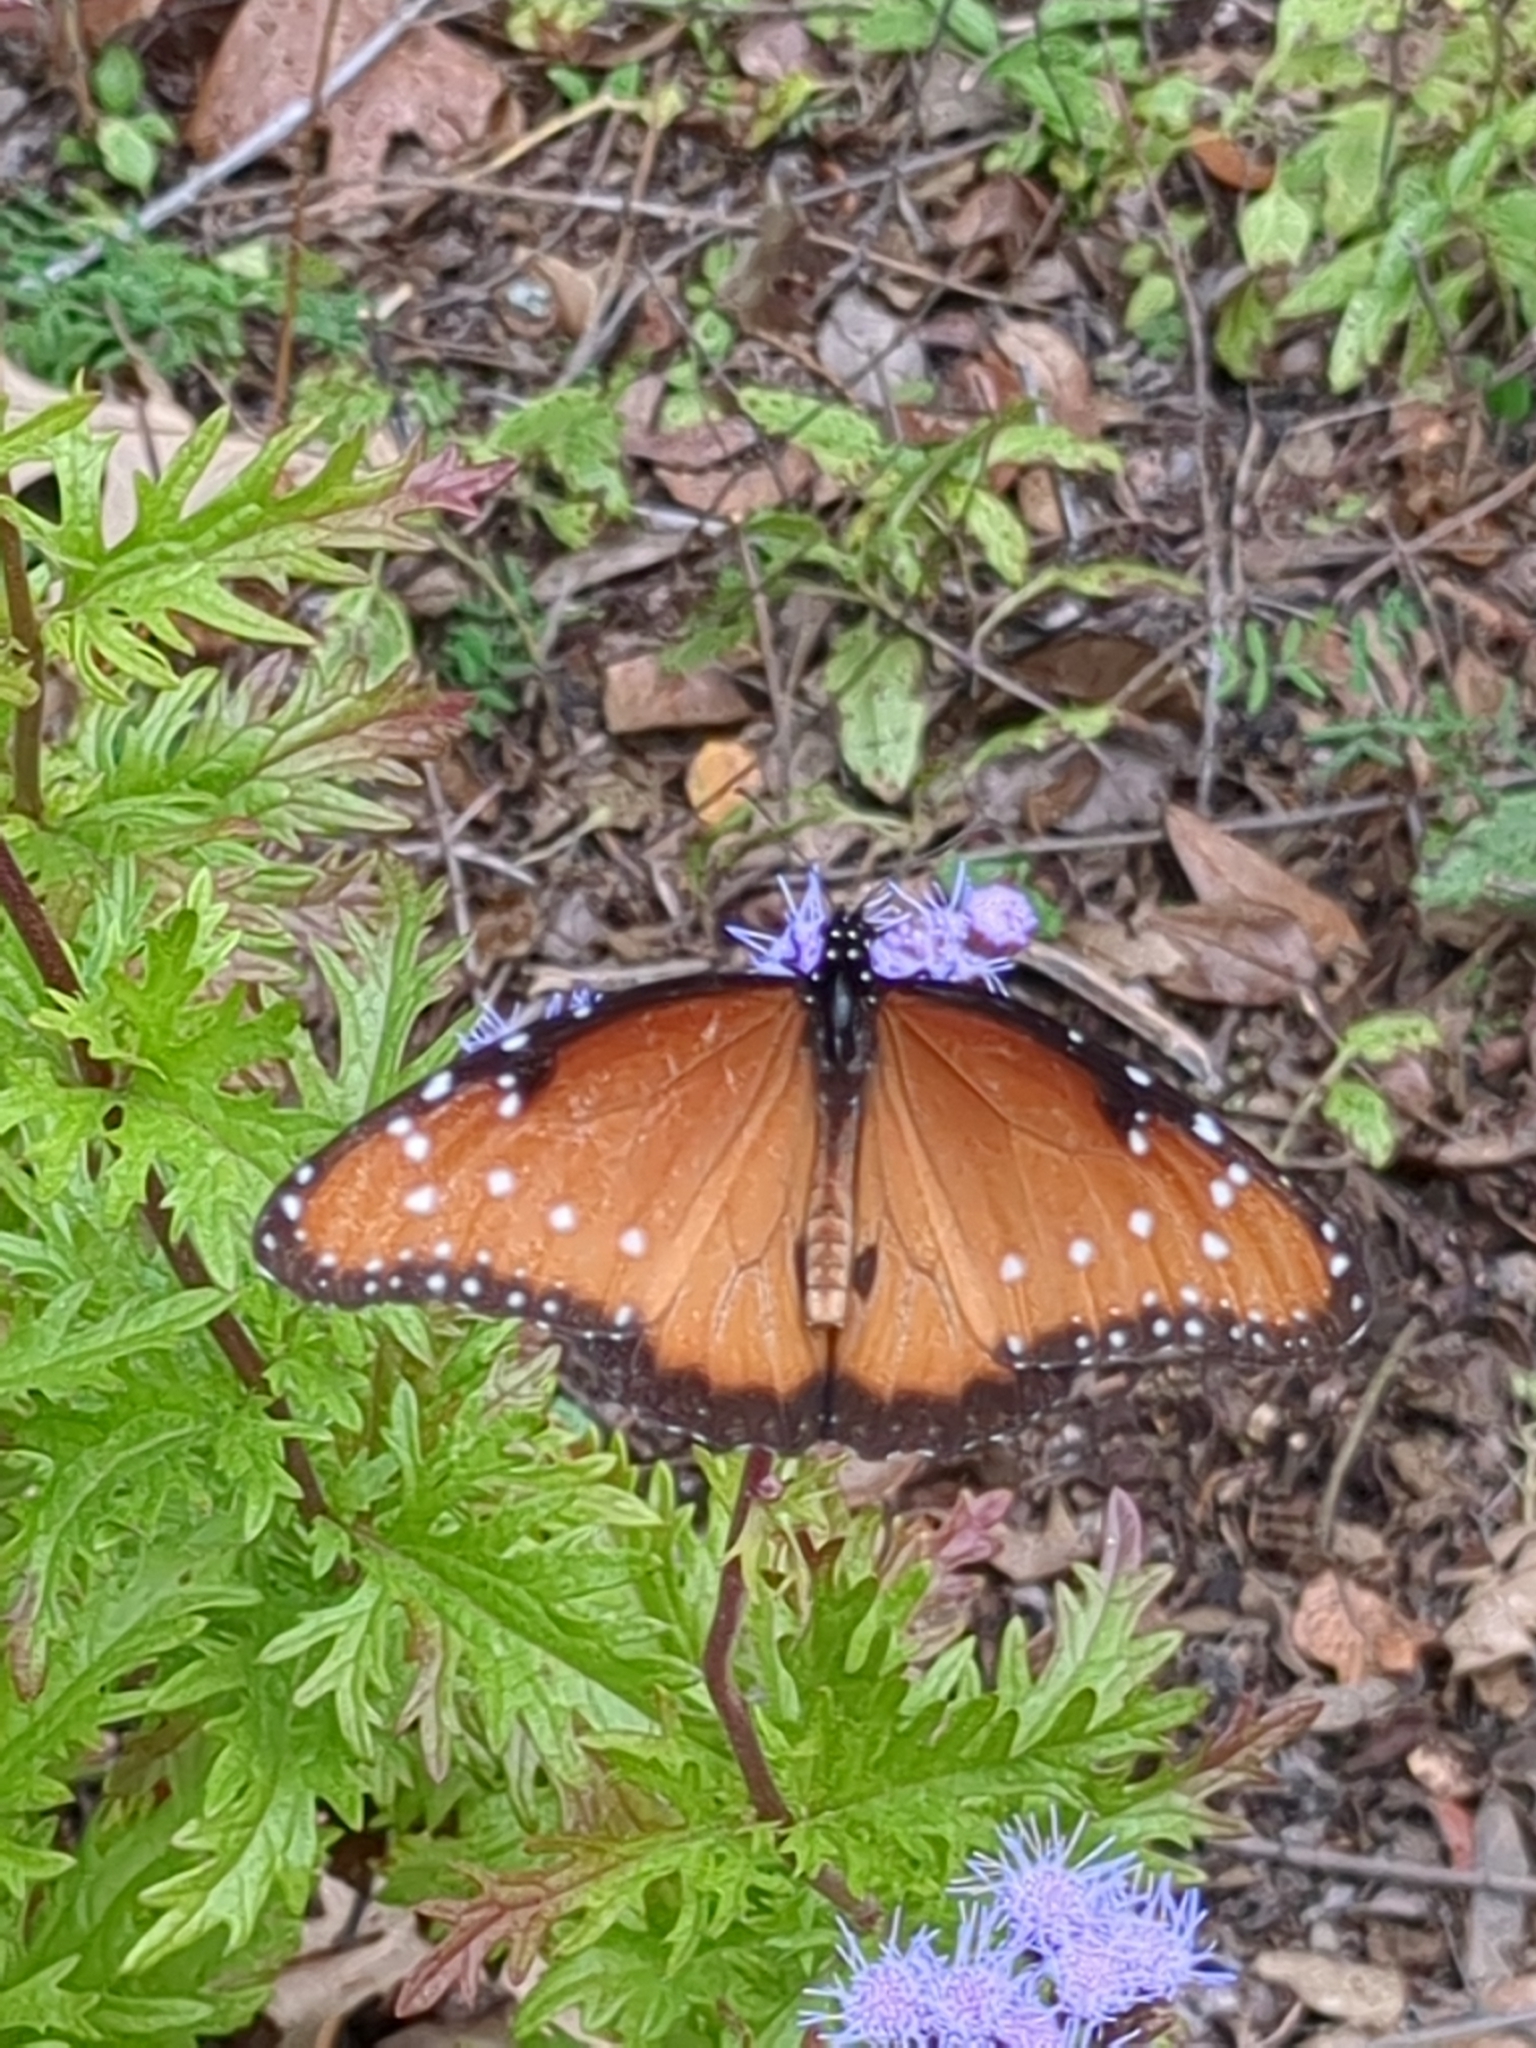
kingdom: Animalia
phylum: Arthropoda
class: Insecta
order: Lepidoptera
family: Nymphalidae
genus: Danaus
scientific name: Danaus gilippus
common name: Queen
